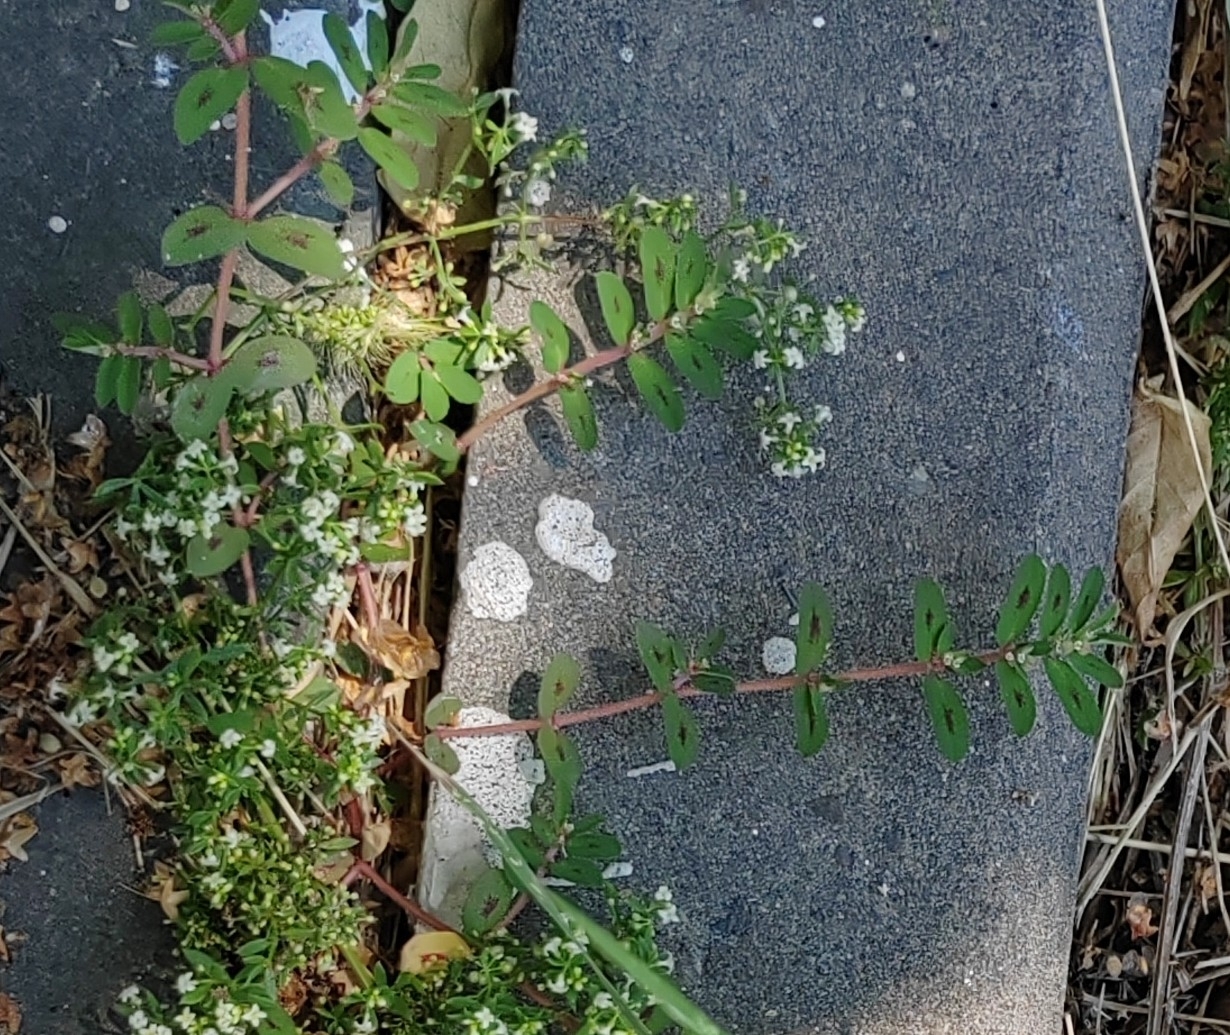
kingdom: Plantae
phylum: Tracheophyta
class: Magnoliopsida
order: Malpighiales
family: Euphorbiaceae
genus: Euphorbia
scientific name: Euphorbia maculata
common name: Spotted spurge
